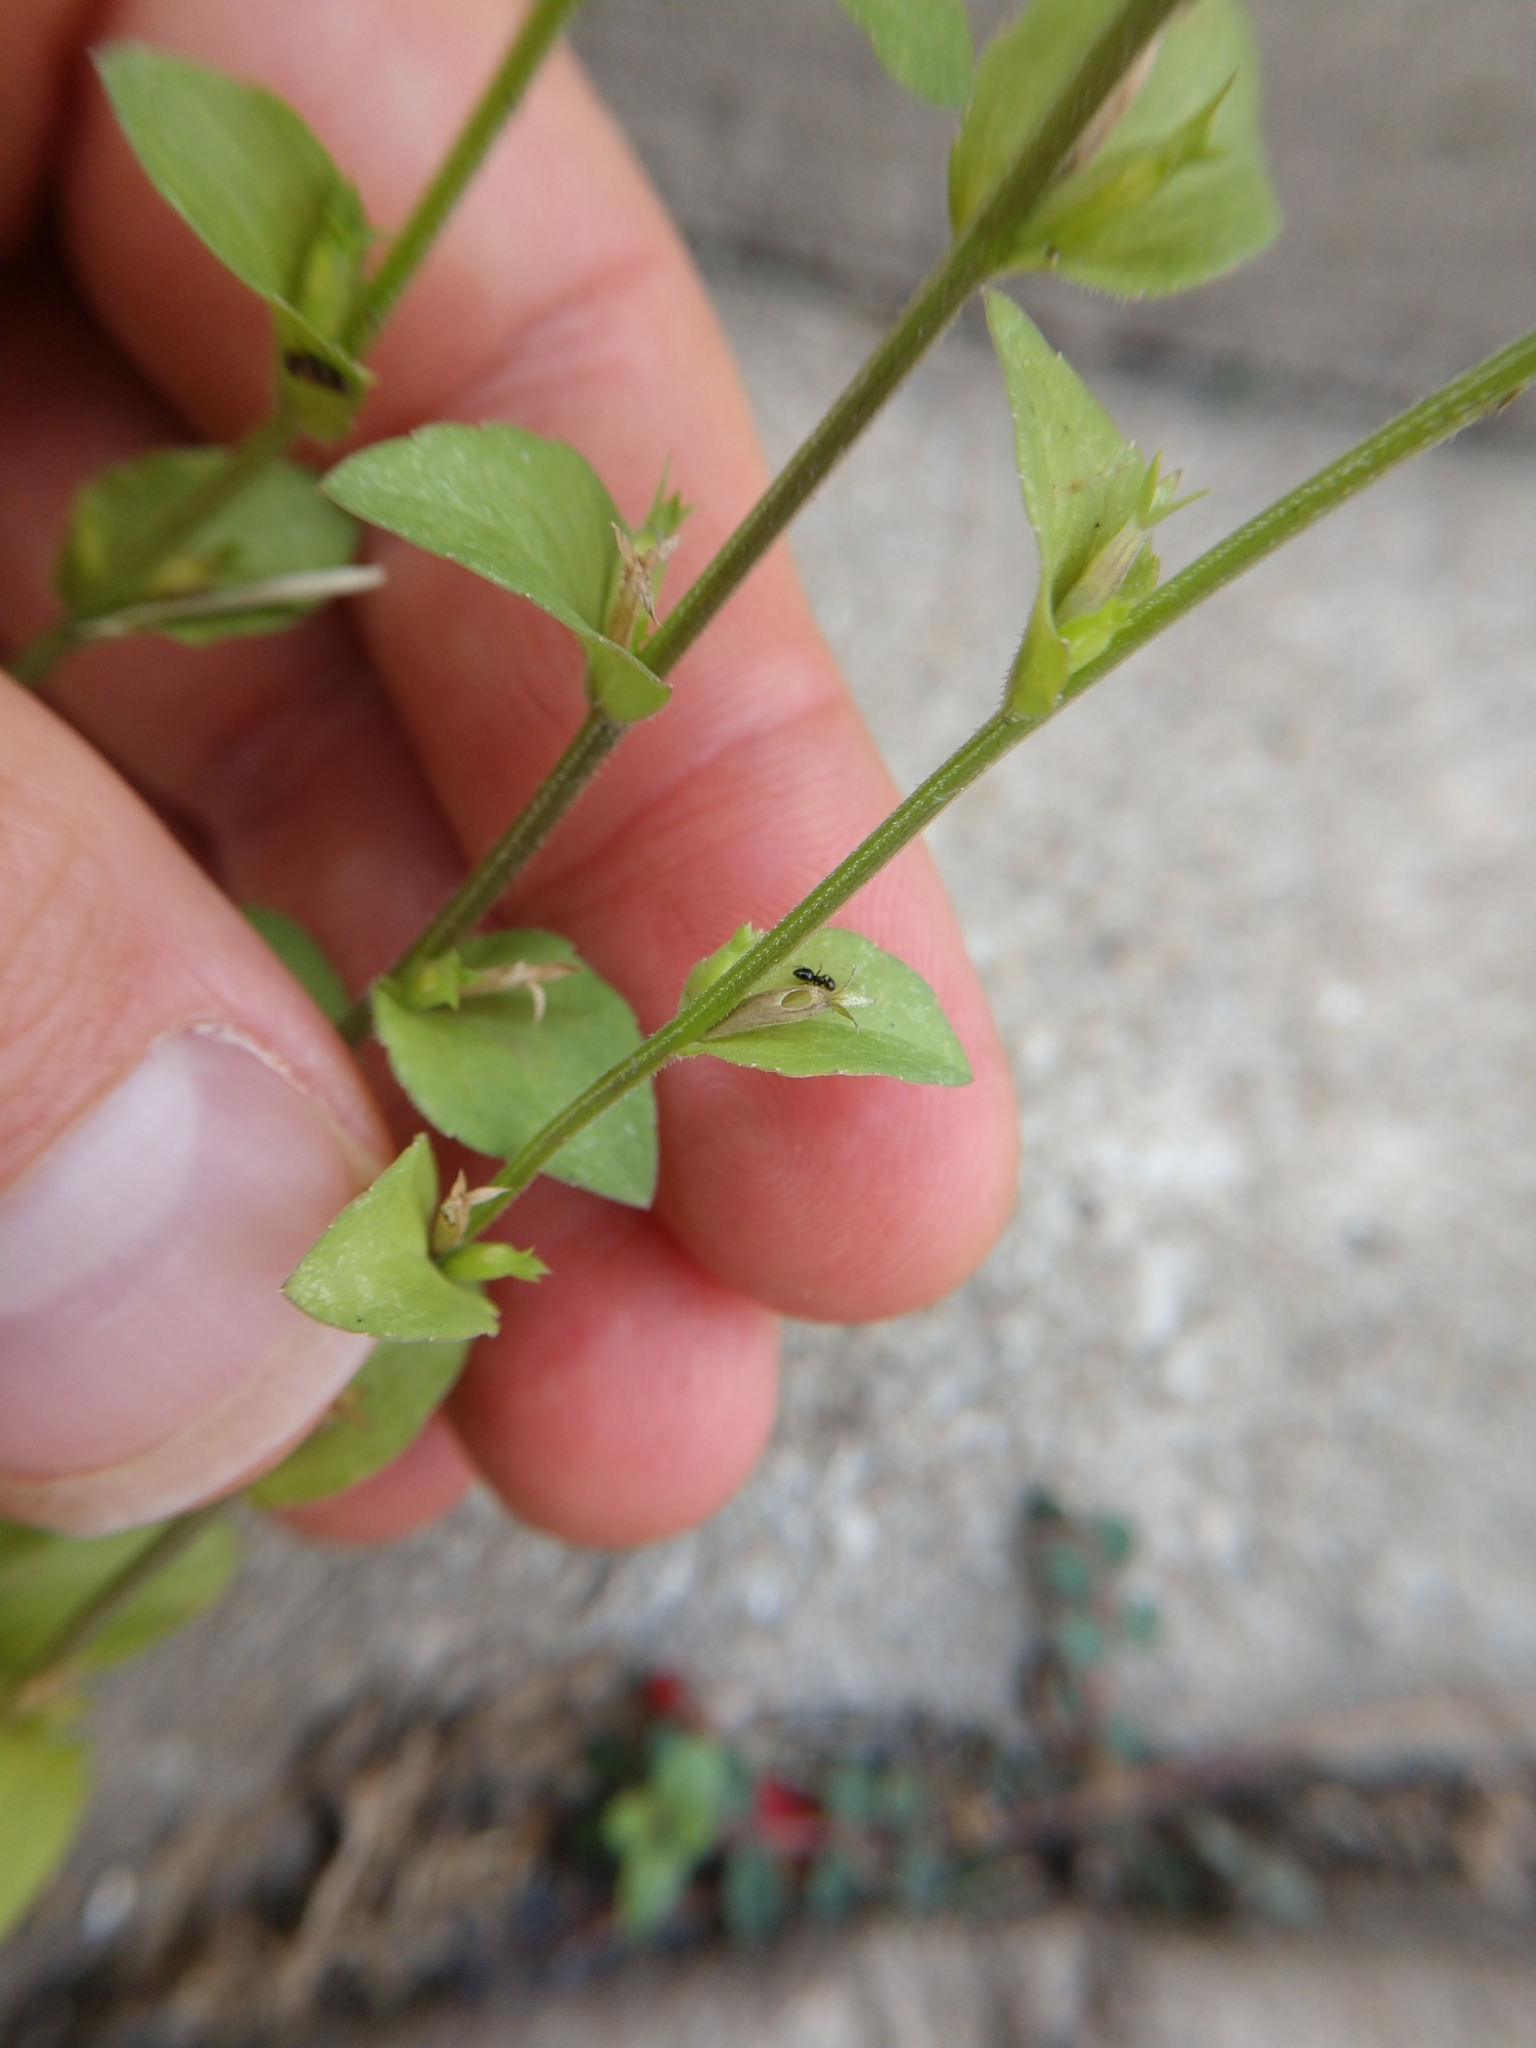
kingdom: Plantae
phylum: Tracheophyta
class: Magnoliopsida
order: Asterales
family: Campanulaceae
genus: Triodanis
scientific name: Triodanis perfoliata
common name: Clasping venus' looking-glass
